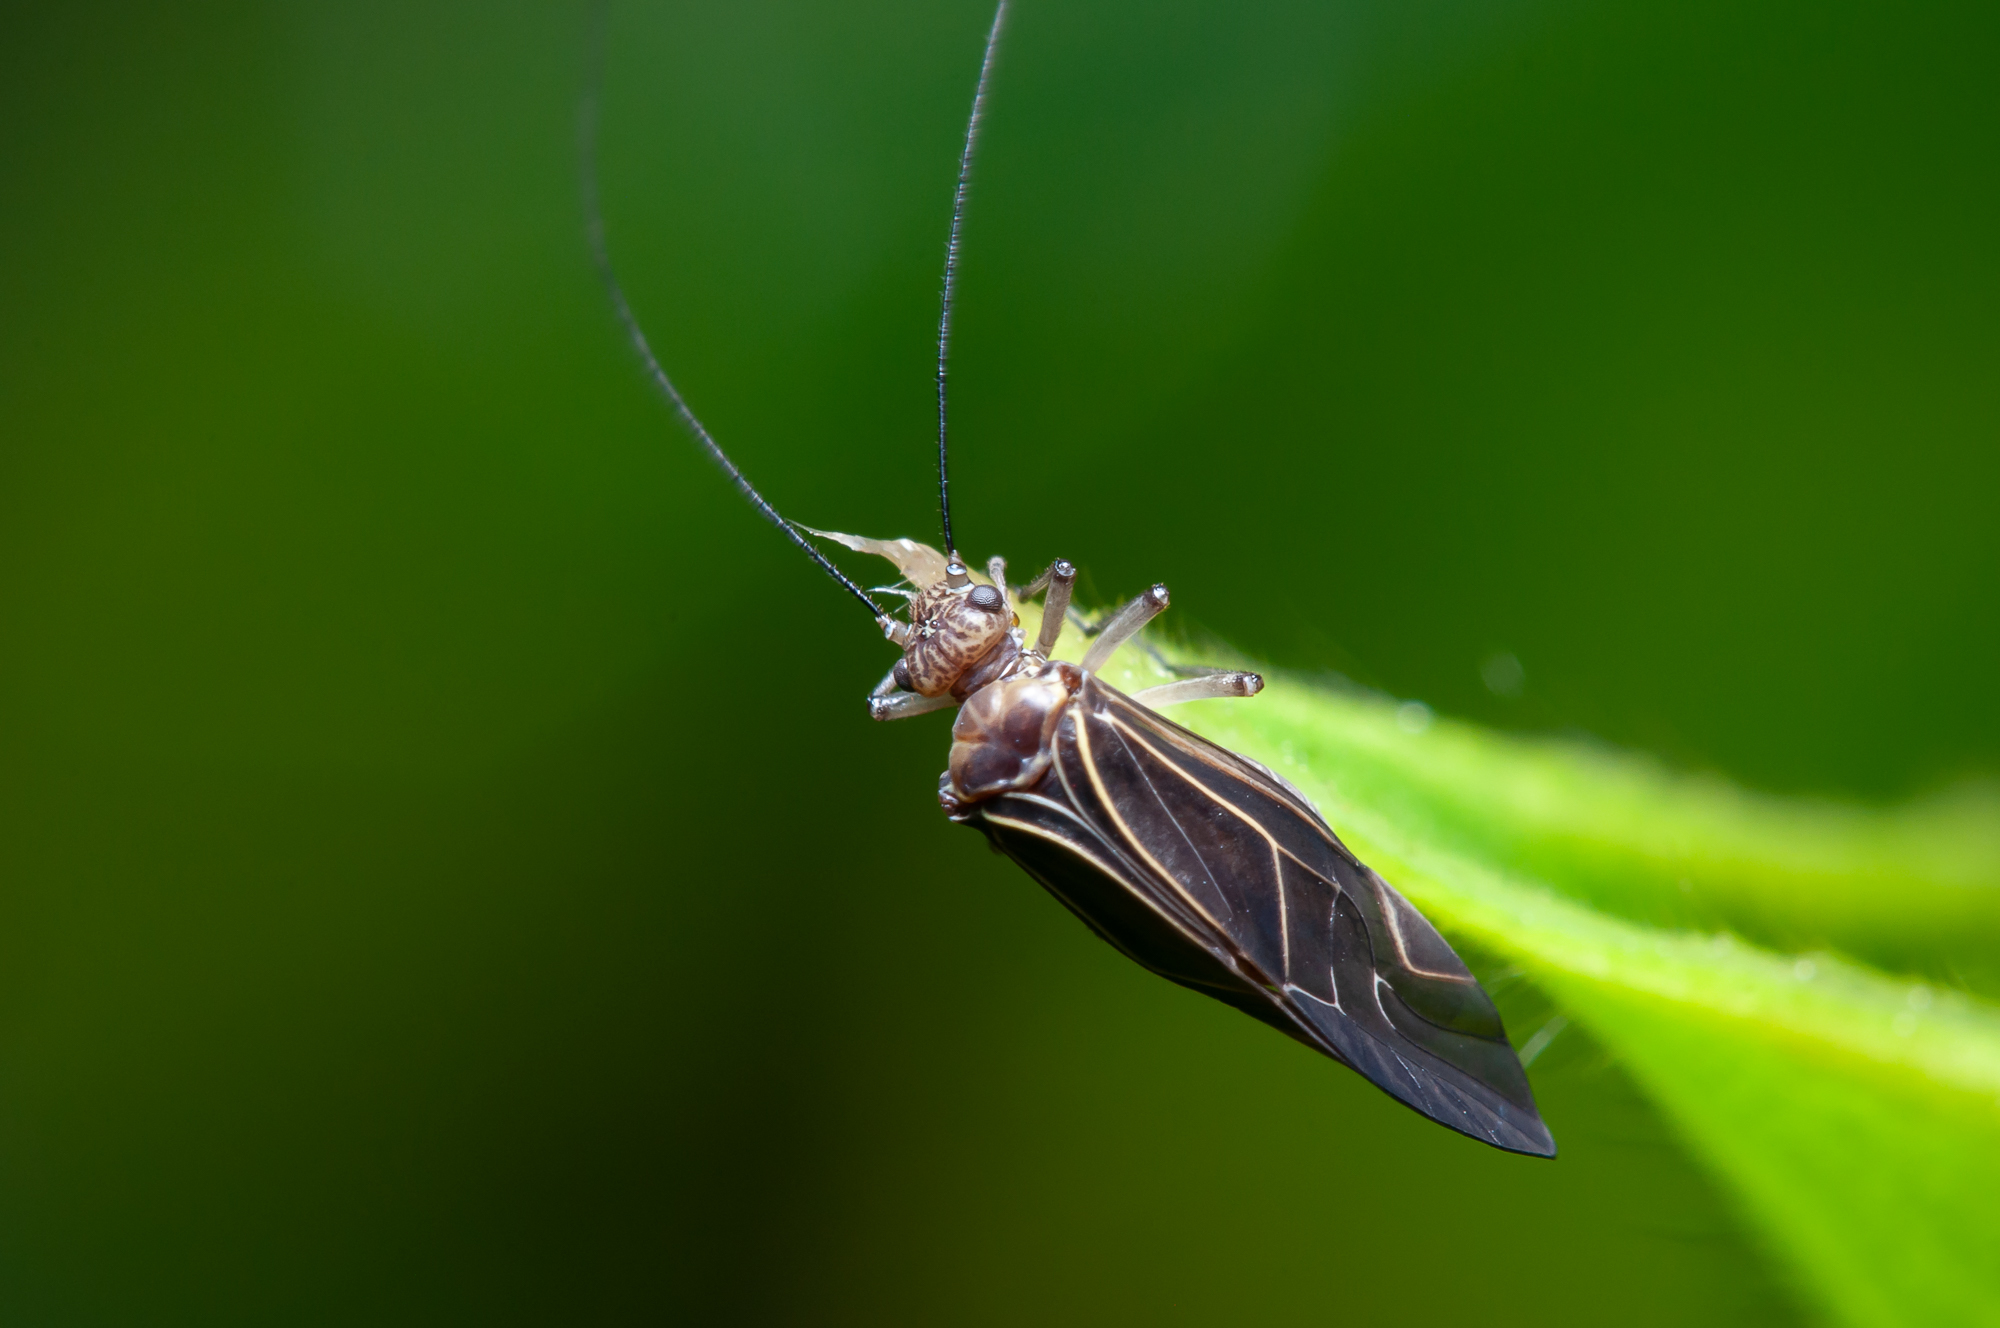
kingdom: Animalia
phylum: Arthropoda
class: Insecta
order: Psocodea
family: Psocidae
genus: Cerastipsocus
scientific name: Cerastipsocus venosus
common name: Tree cattle
